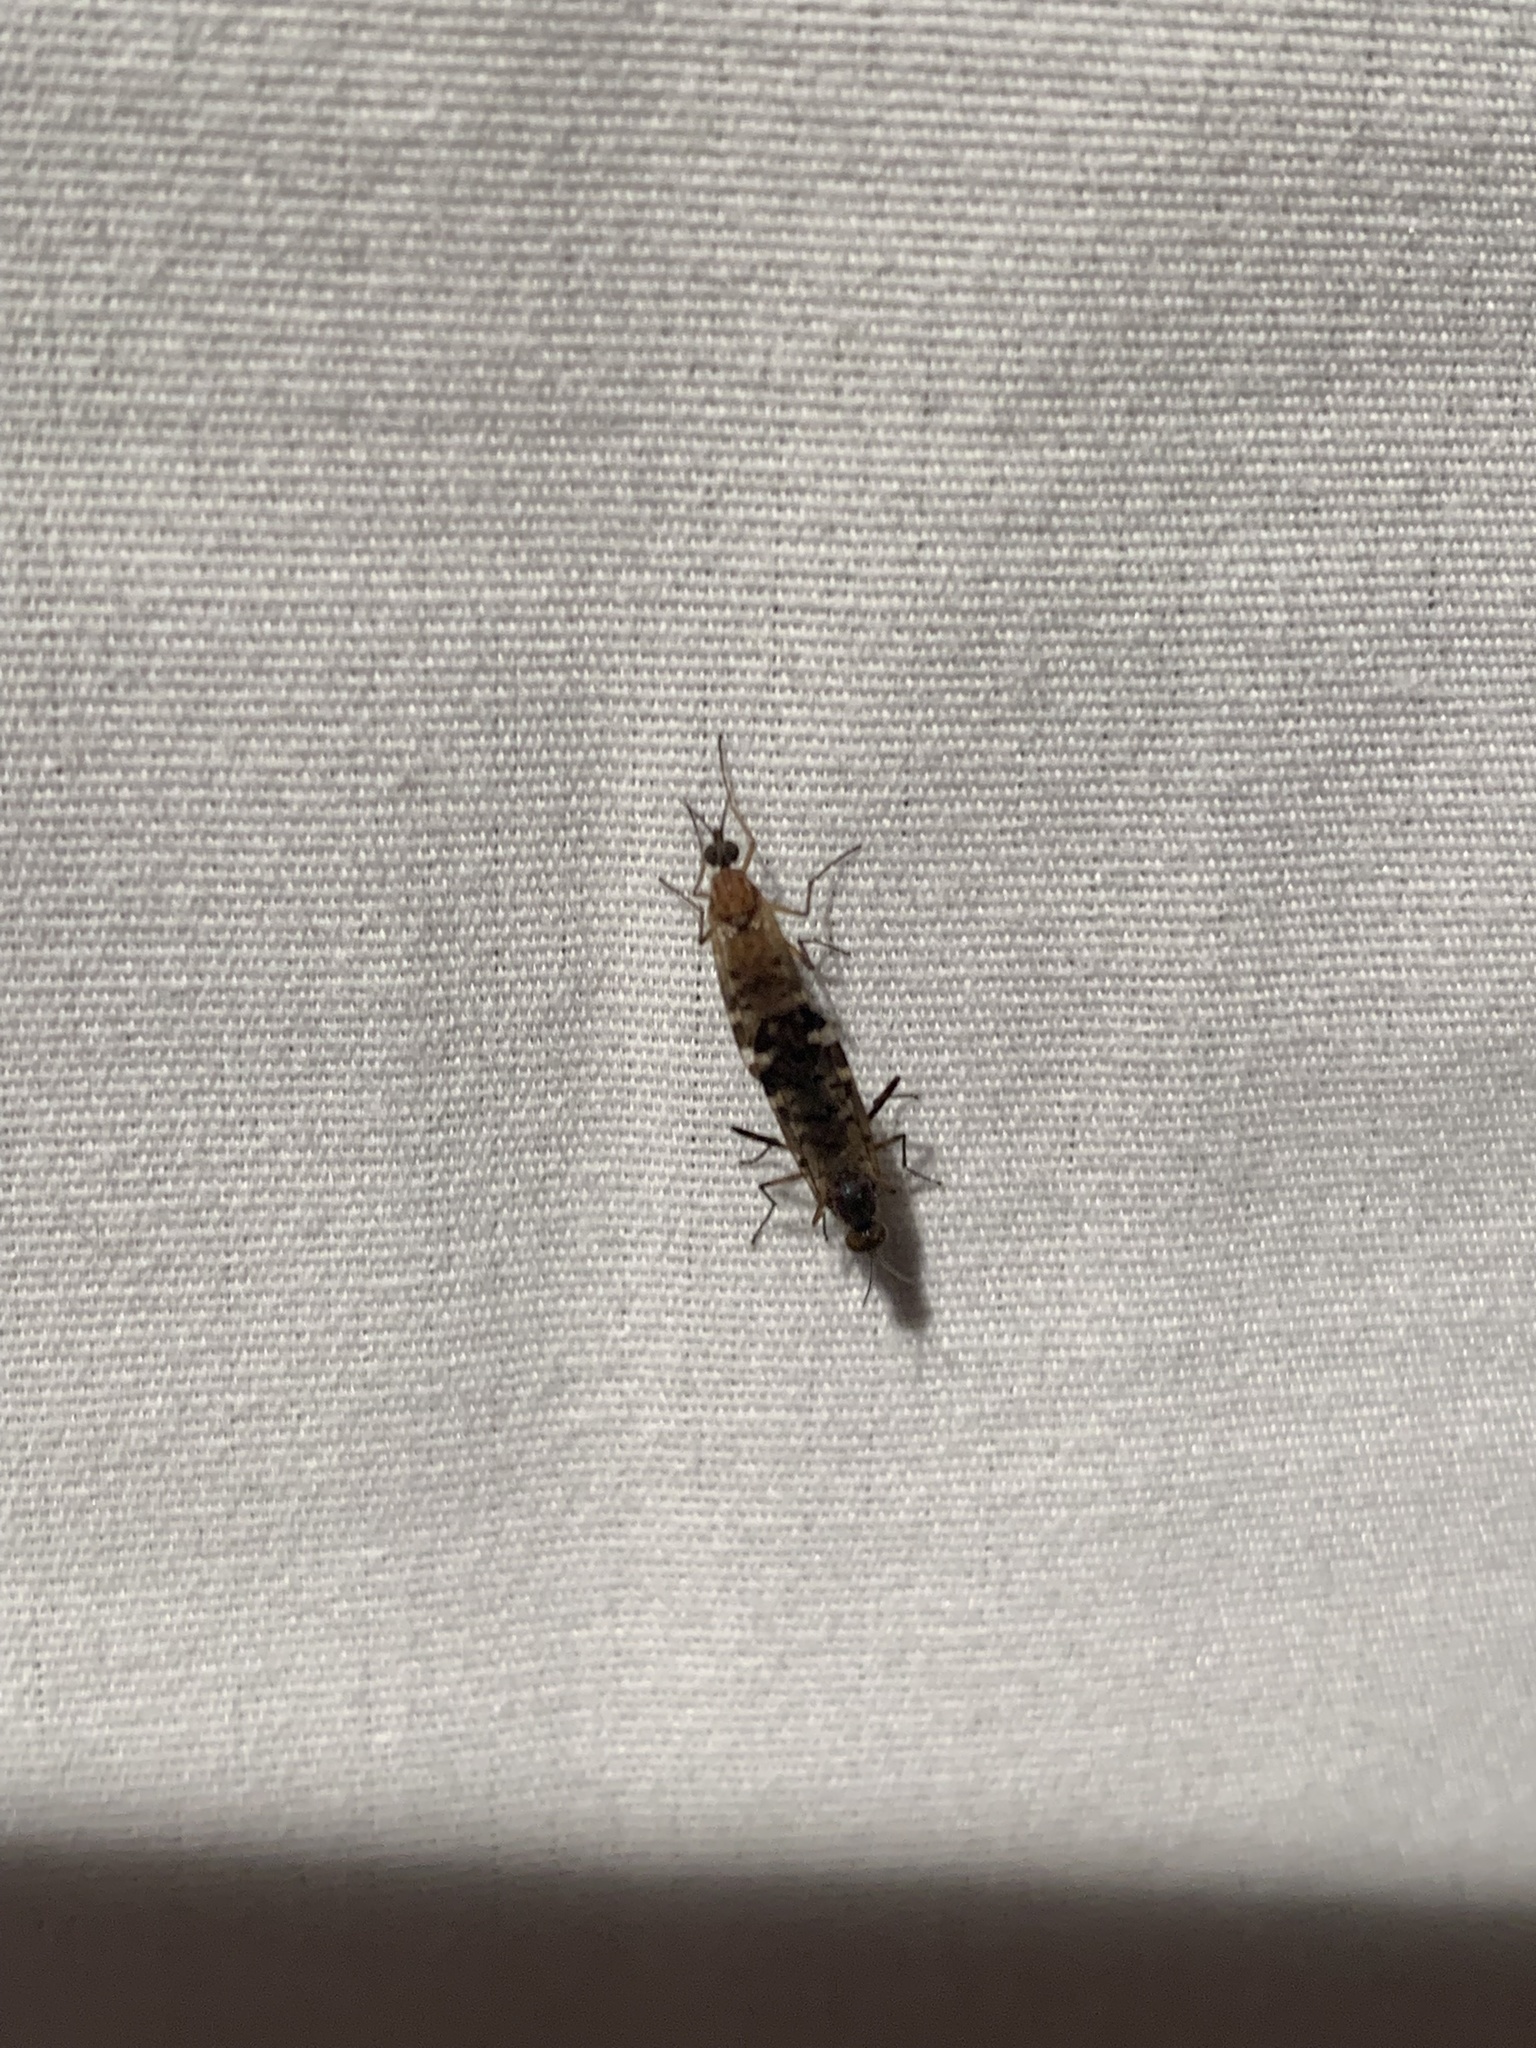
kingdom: Animalia
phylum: Arthropoda
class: Insecta
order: Diptera
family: Anisopodidae
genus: Sylvicola
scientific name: Sylvicola alternata
